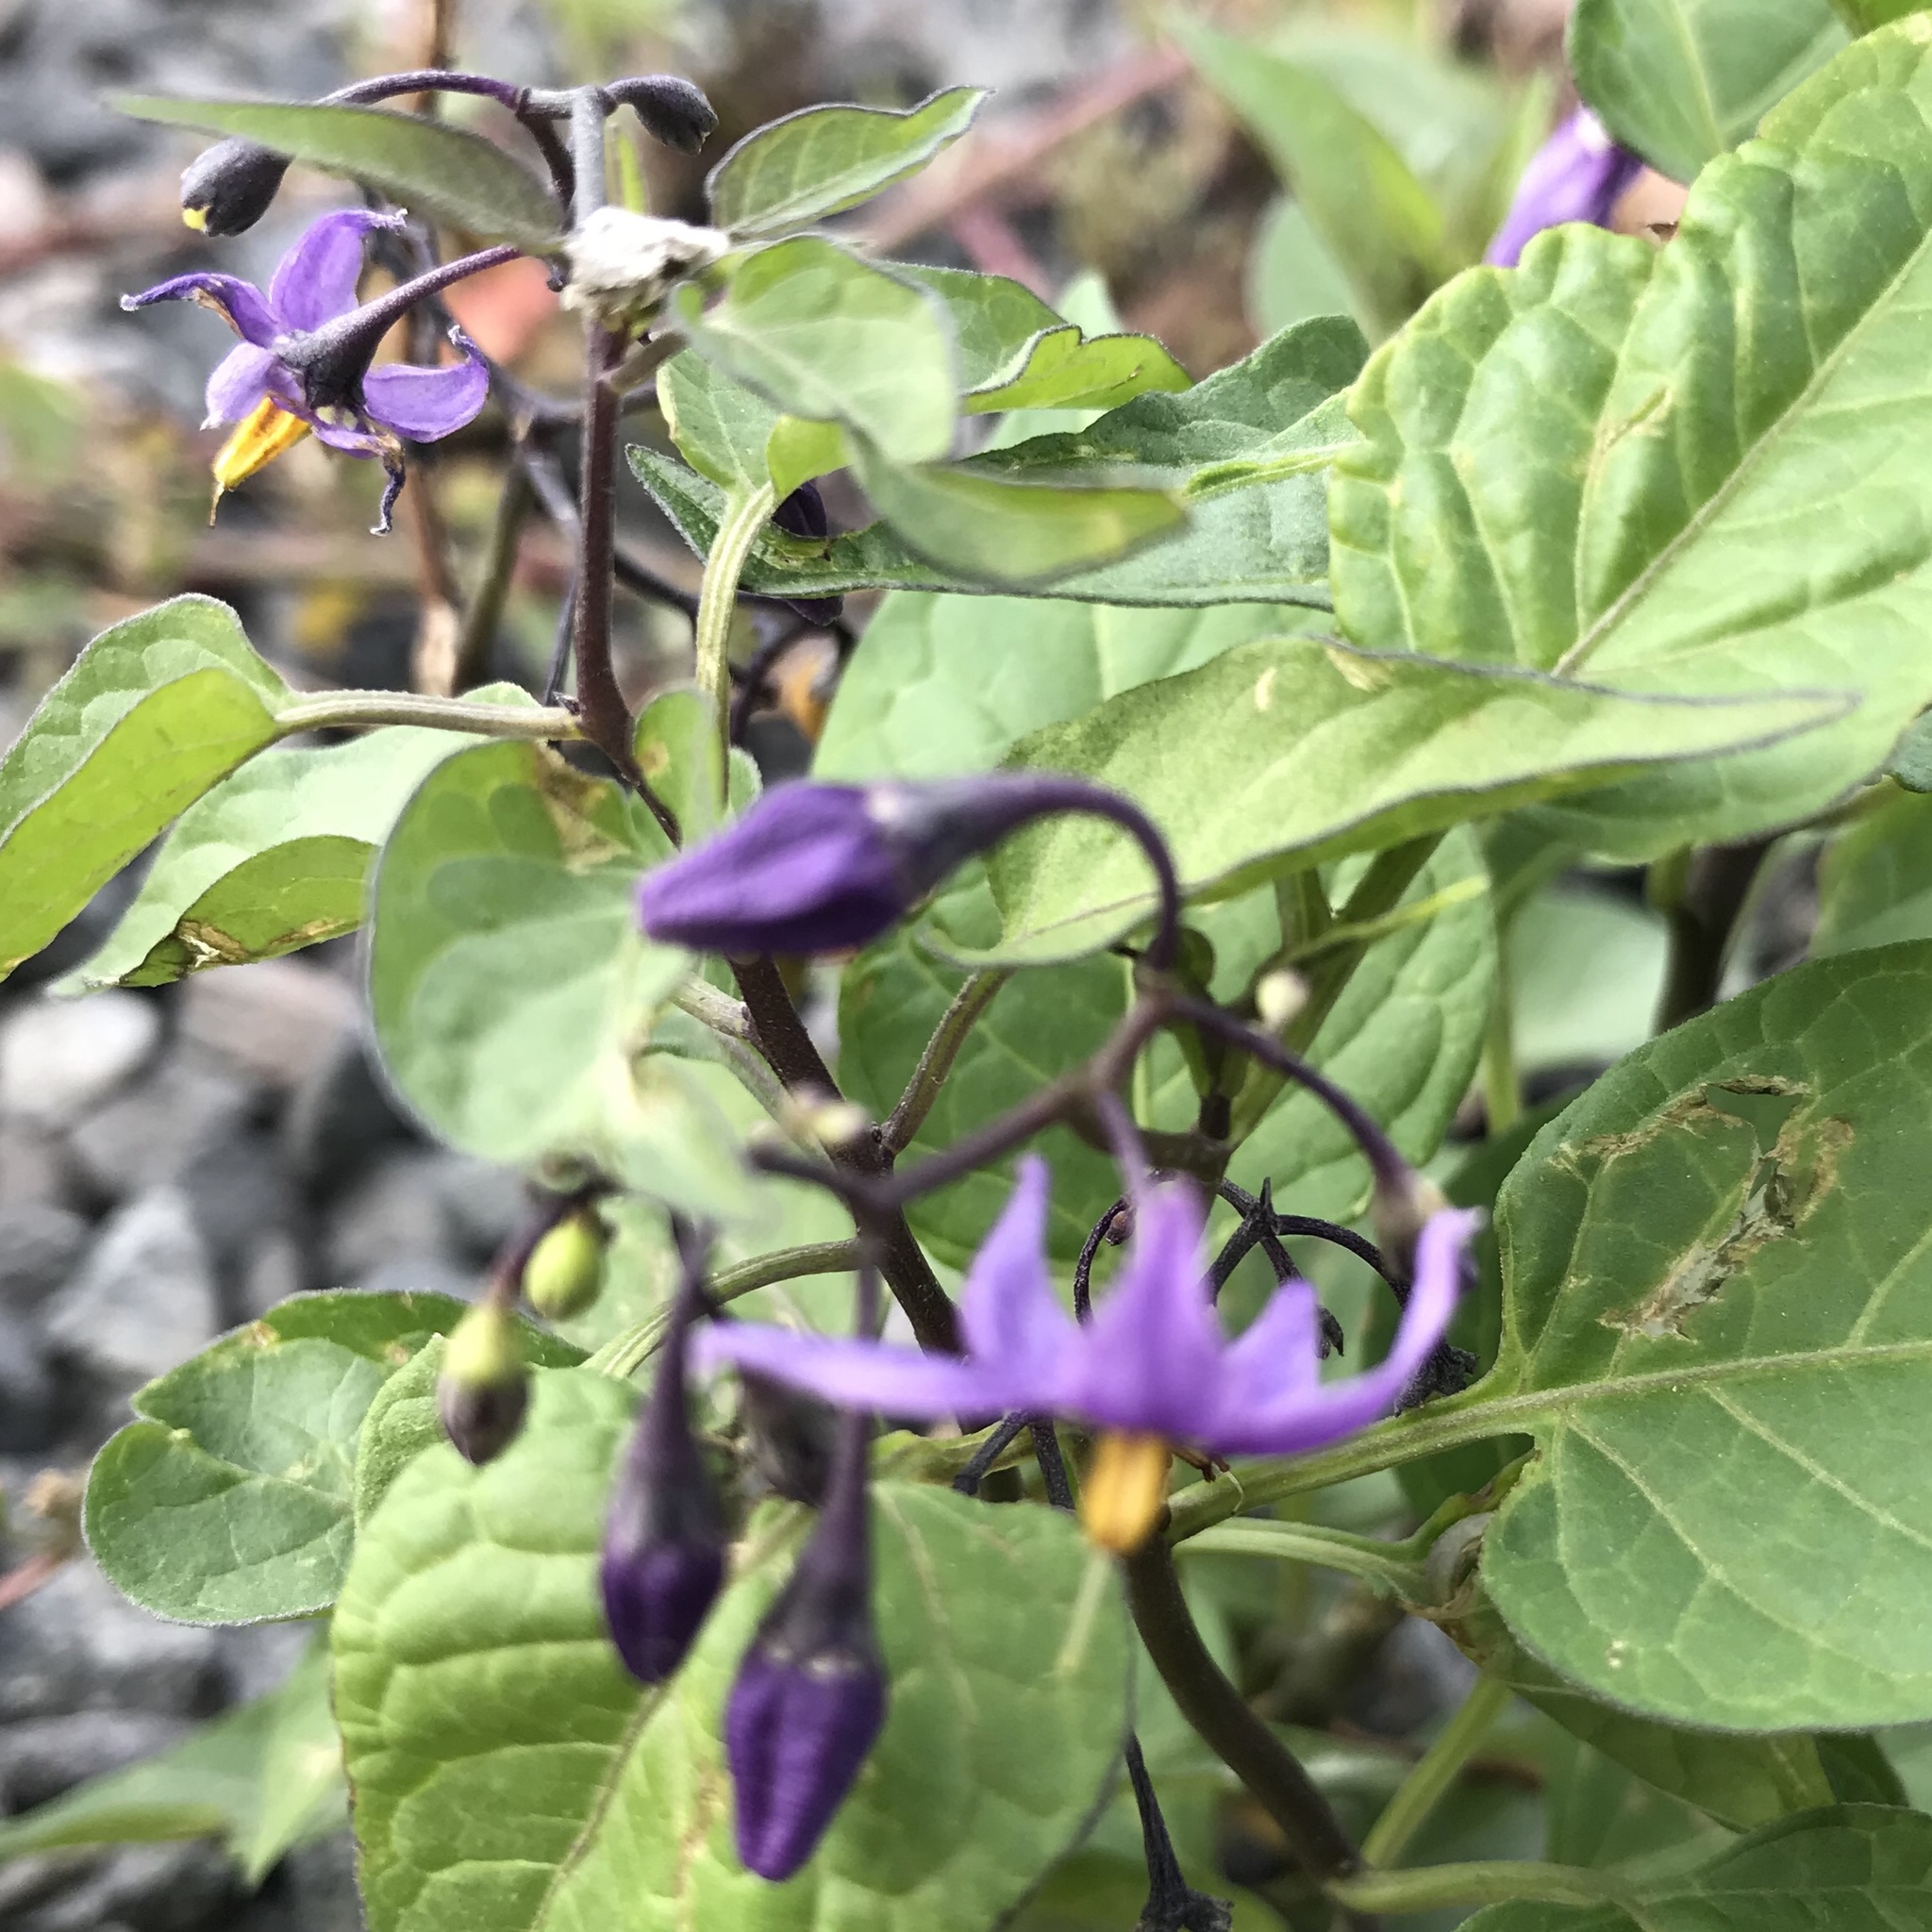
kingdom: Plantae
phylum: Tracheophyta
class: Magnoliopsida
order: Solanales
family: Solanaceae
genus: Solanum
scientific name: Solanum dulcamara
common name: Climbing nightshade
